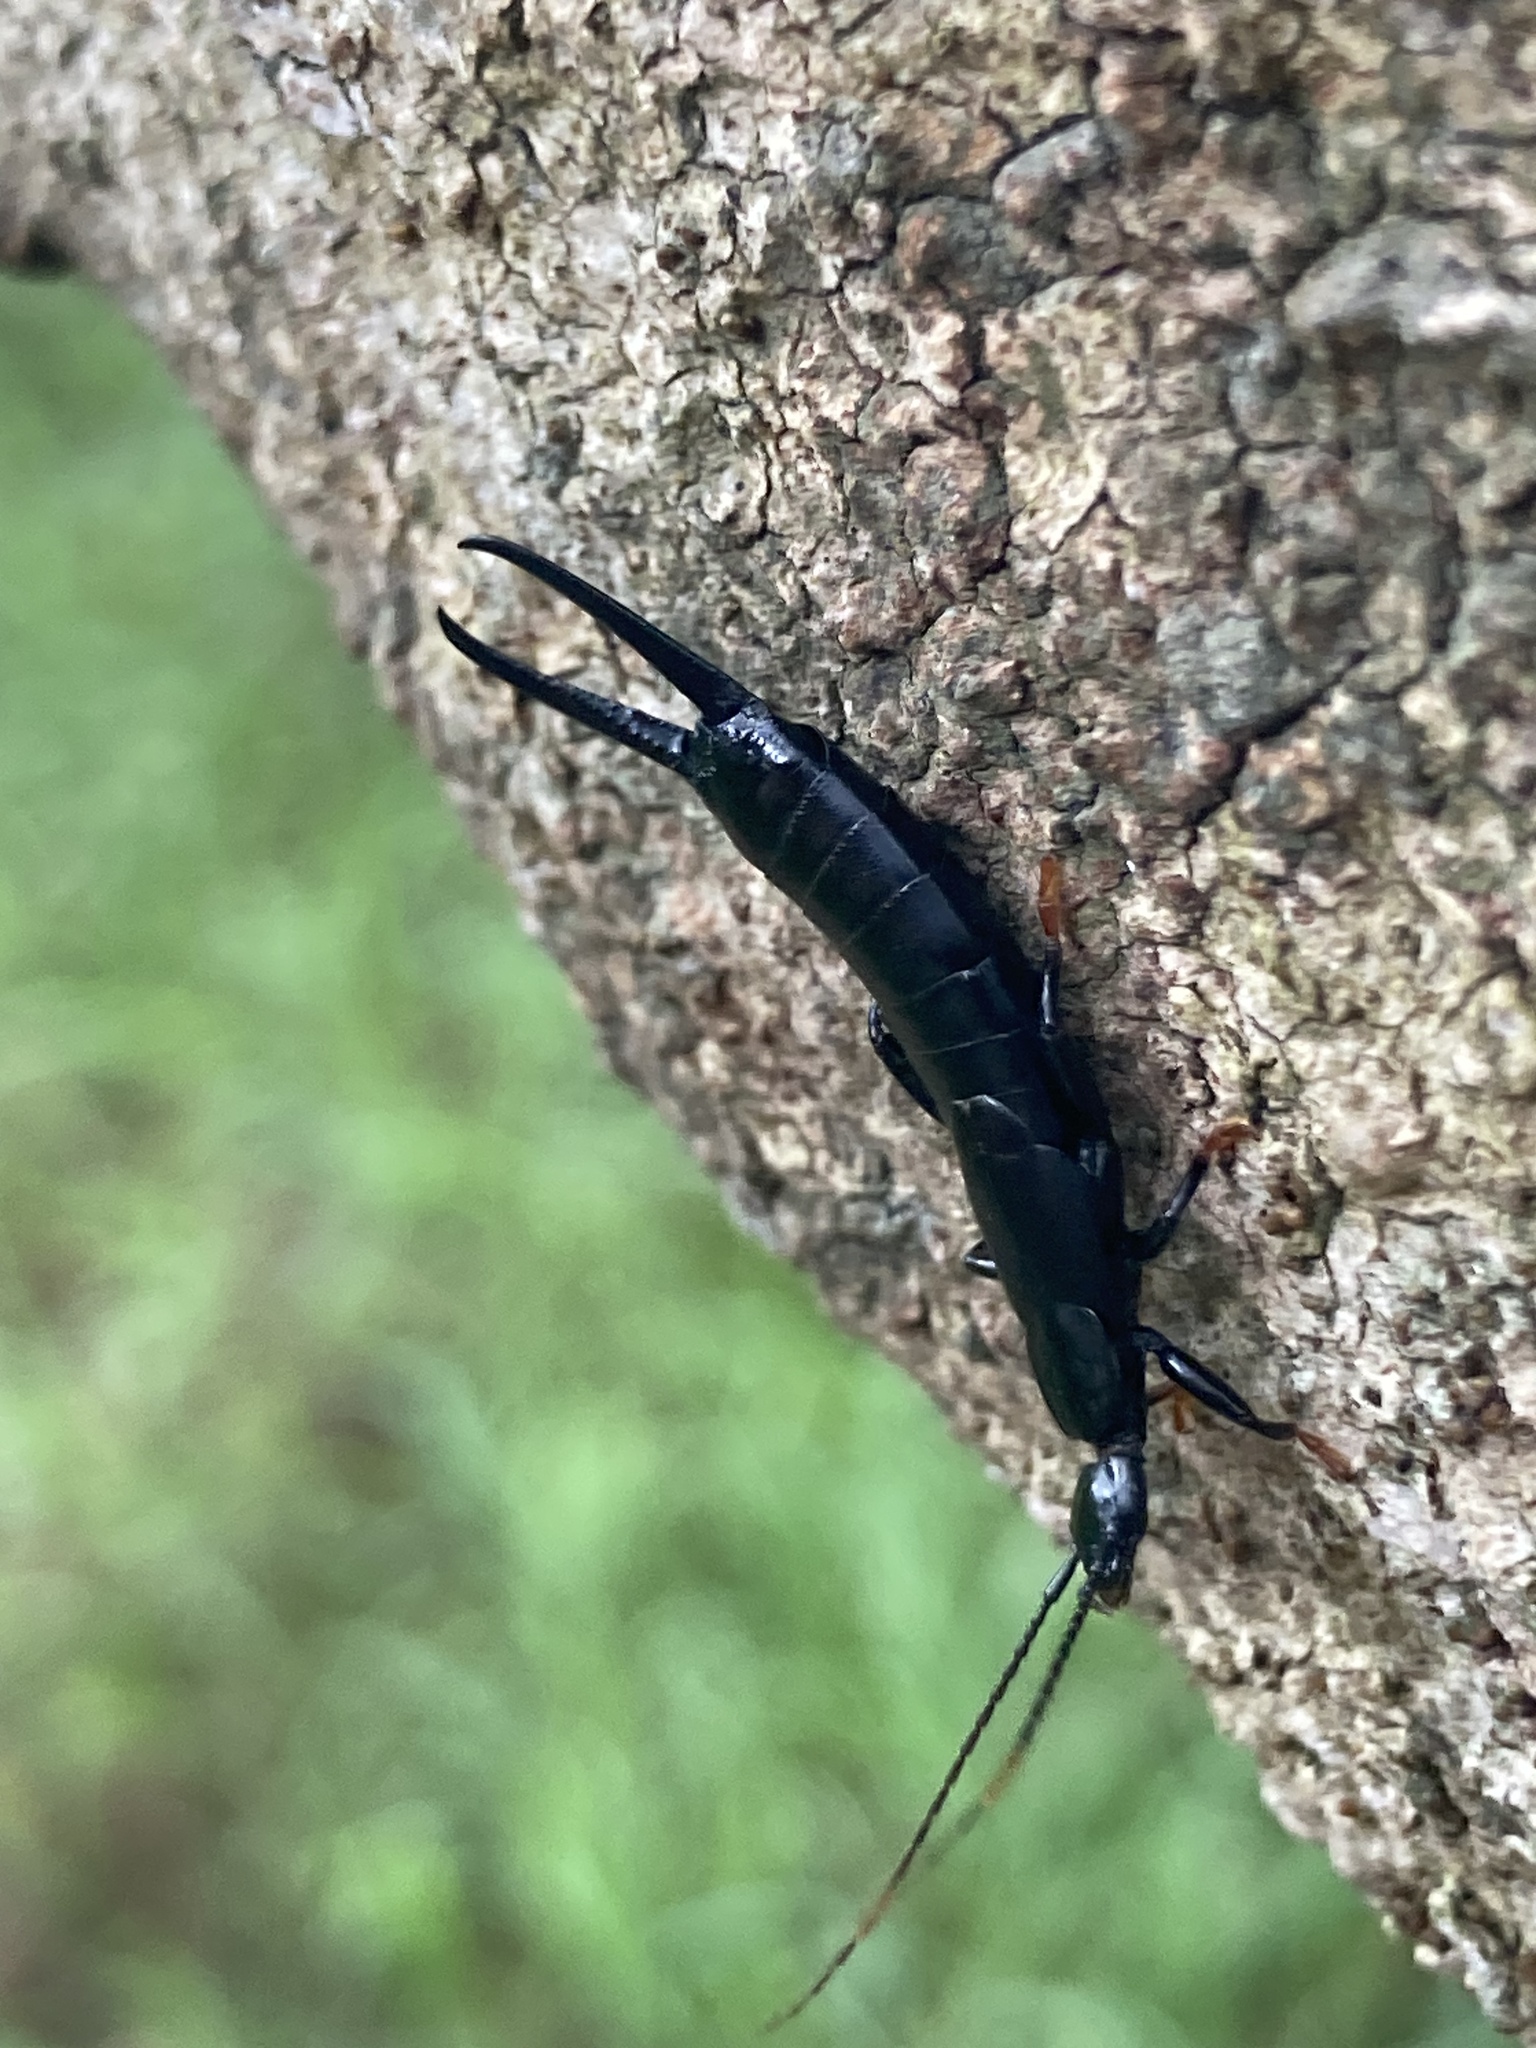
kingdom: Animalia
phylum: Arthropoda
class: Insecta
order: Dermaptera
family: Chelisochidae
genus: Chelisoches
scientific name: Chelisoches morio
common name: Black earwig
